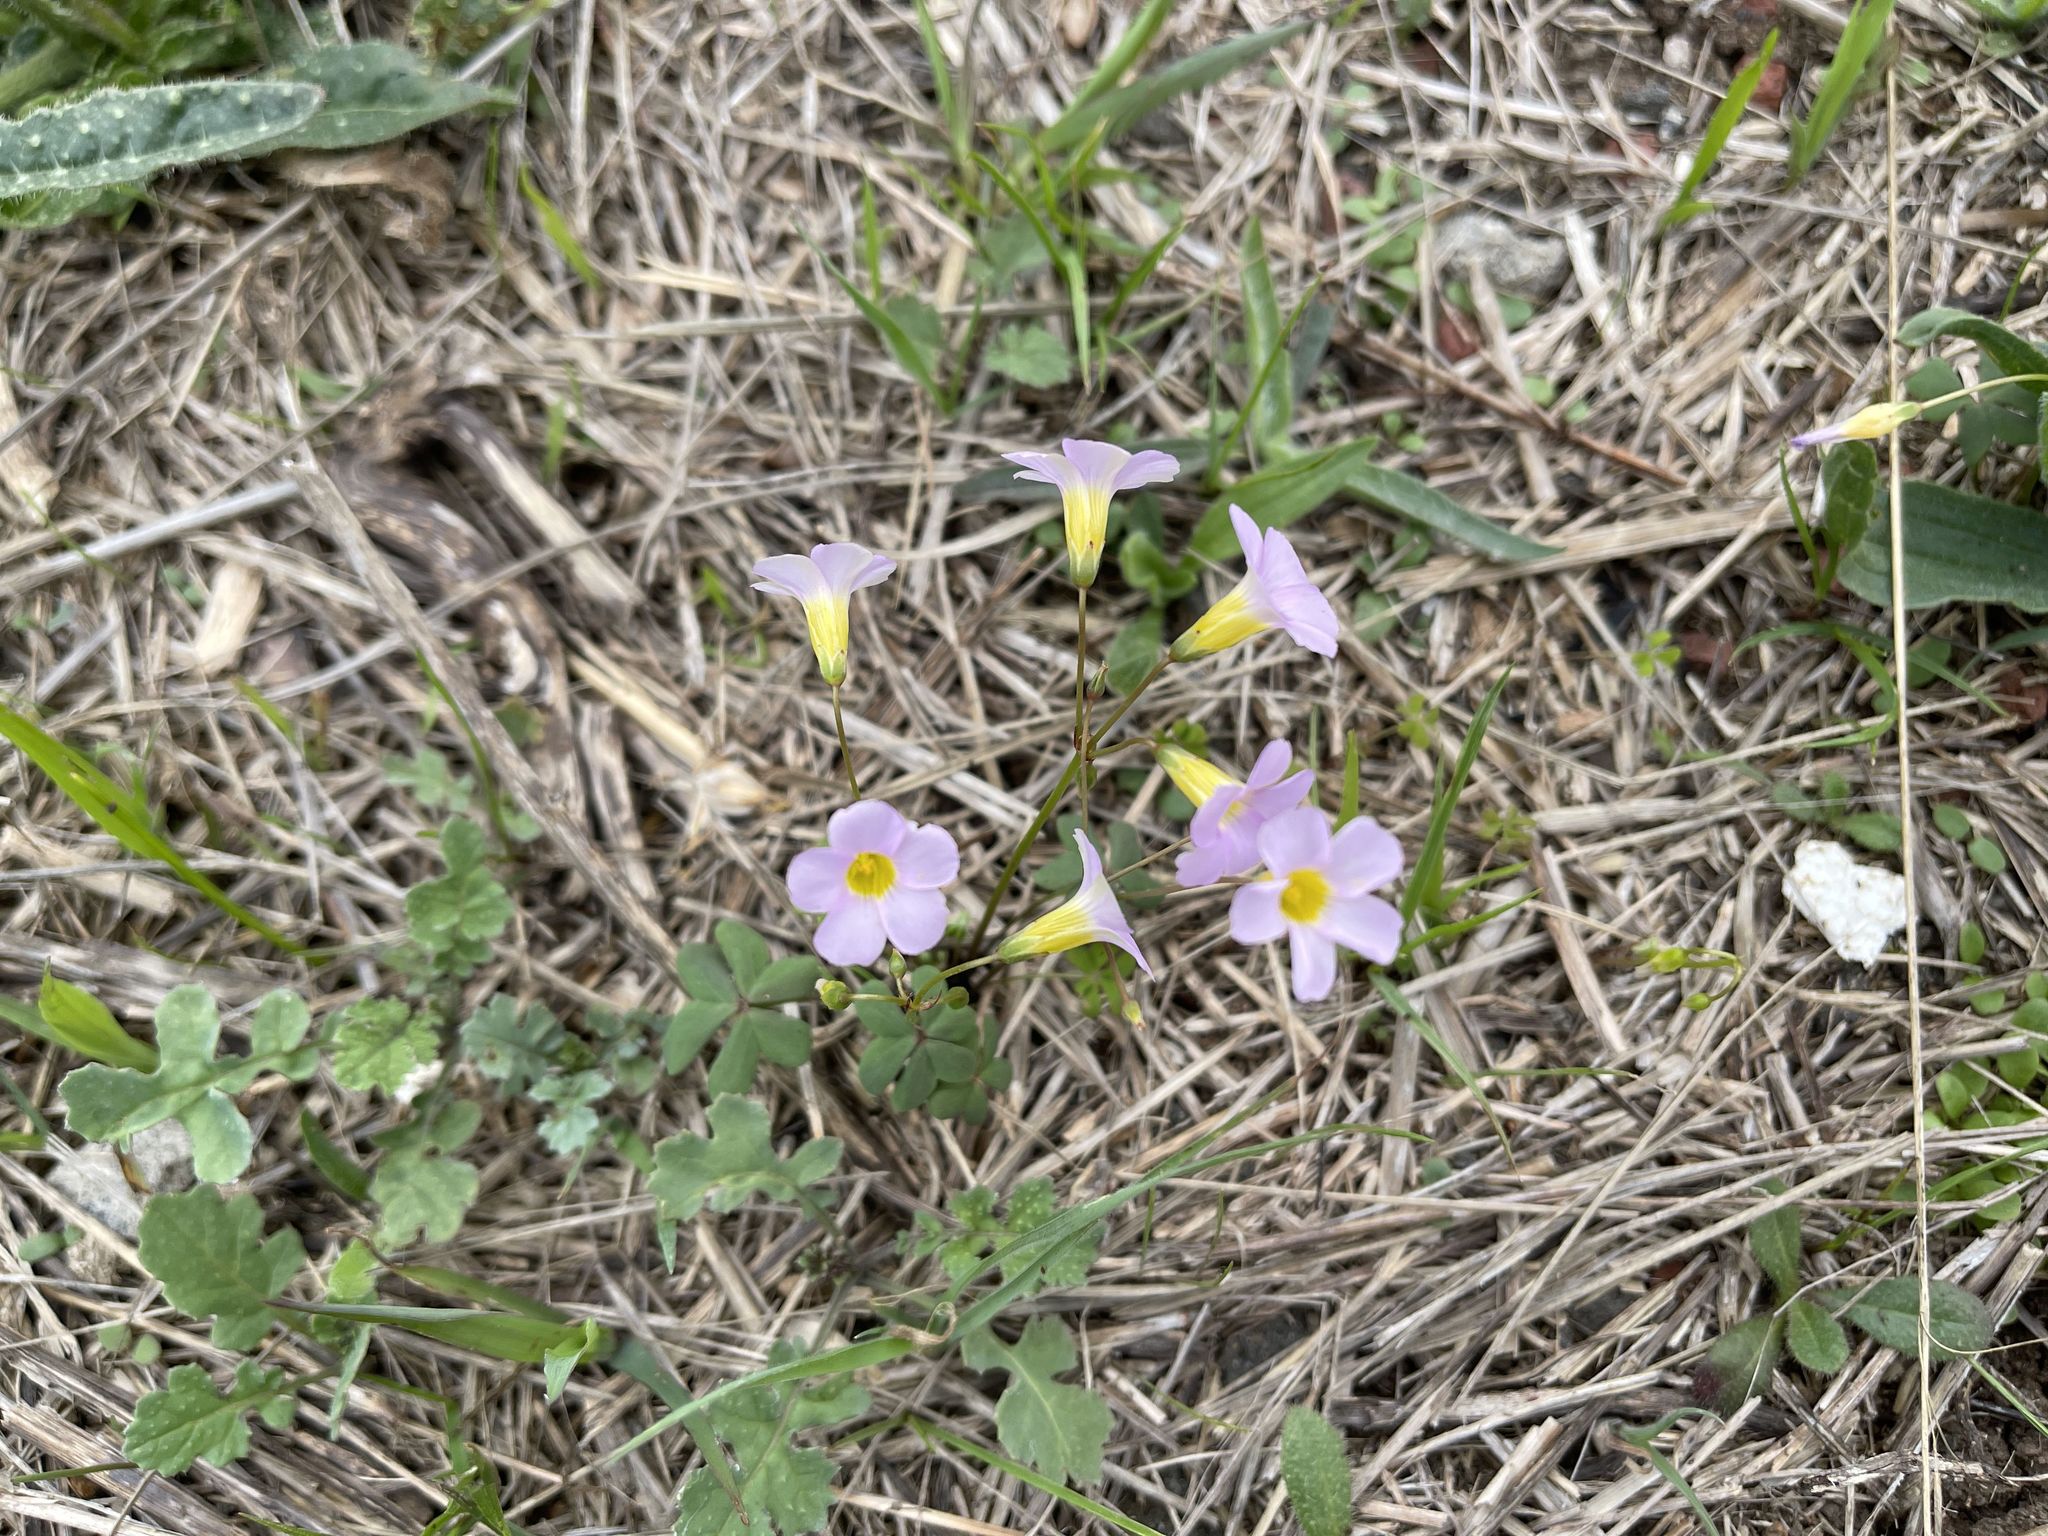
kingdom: Plantae
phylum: Tracheophyta
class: Magnoliopsida
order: Oxalidales
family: Oxalidaceae
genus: Oxalis
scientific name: Oxalis caprina
